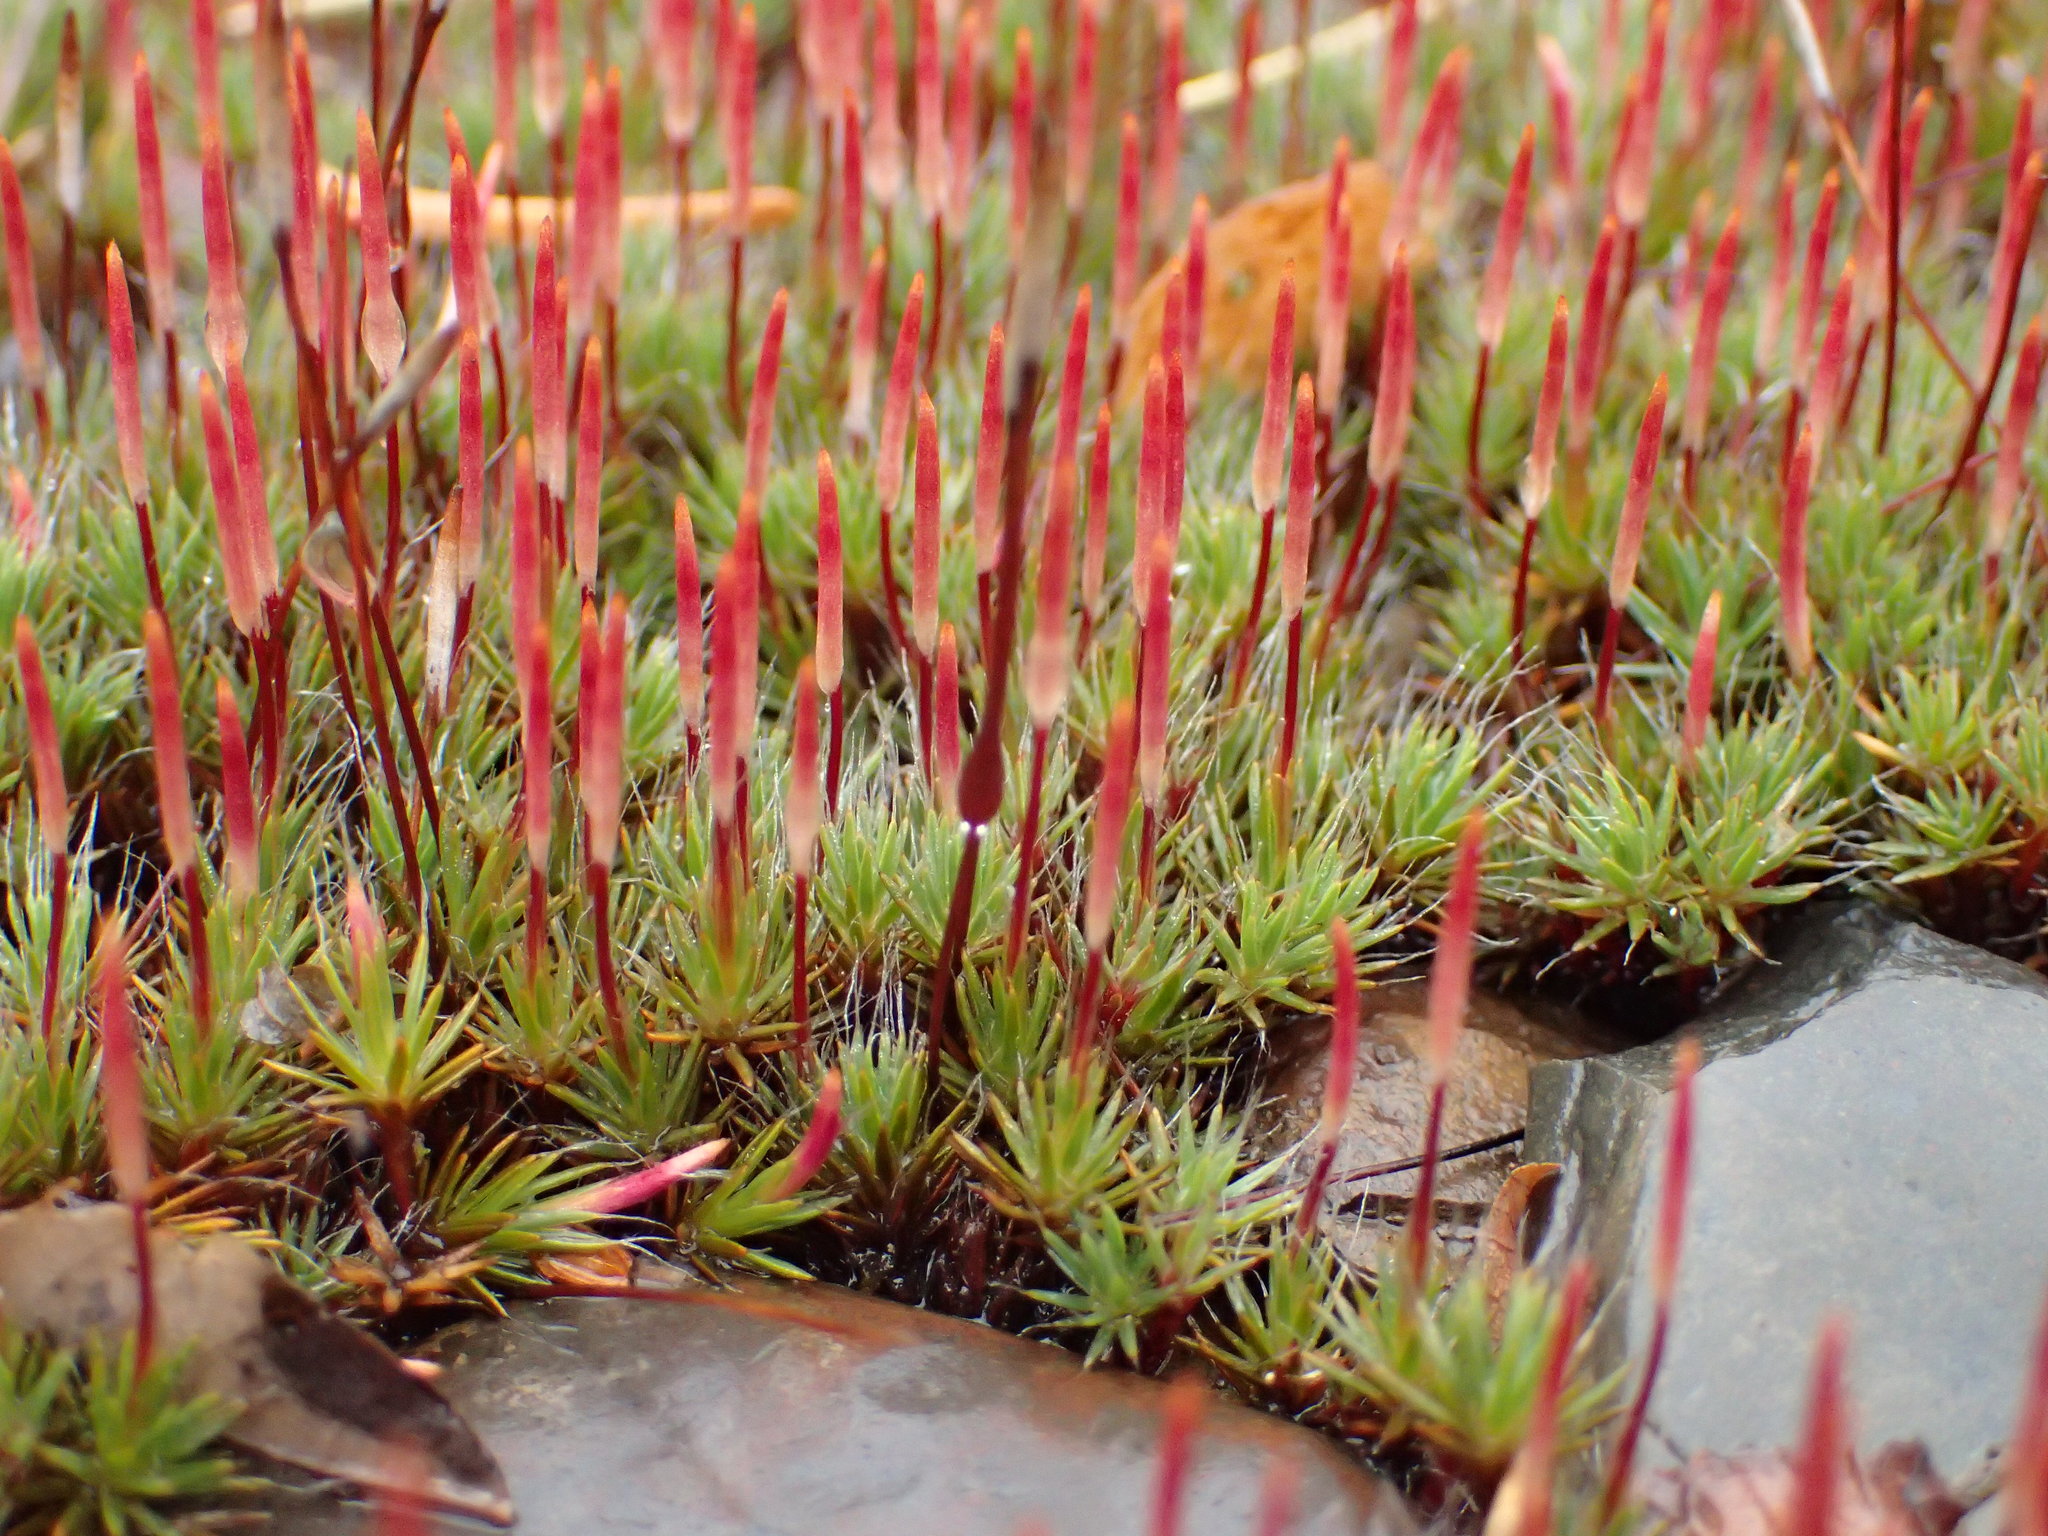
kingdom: Plantae
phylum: Bryophyta
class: Polytrichopsida
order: Polytrichales
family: Polytrichaceae
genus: Polytrichum
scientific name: Polytrichum piliferum
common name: Bristly haircap
